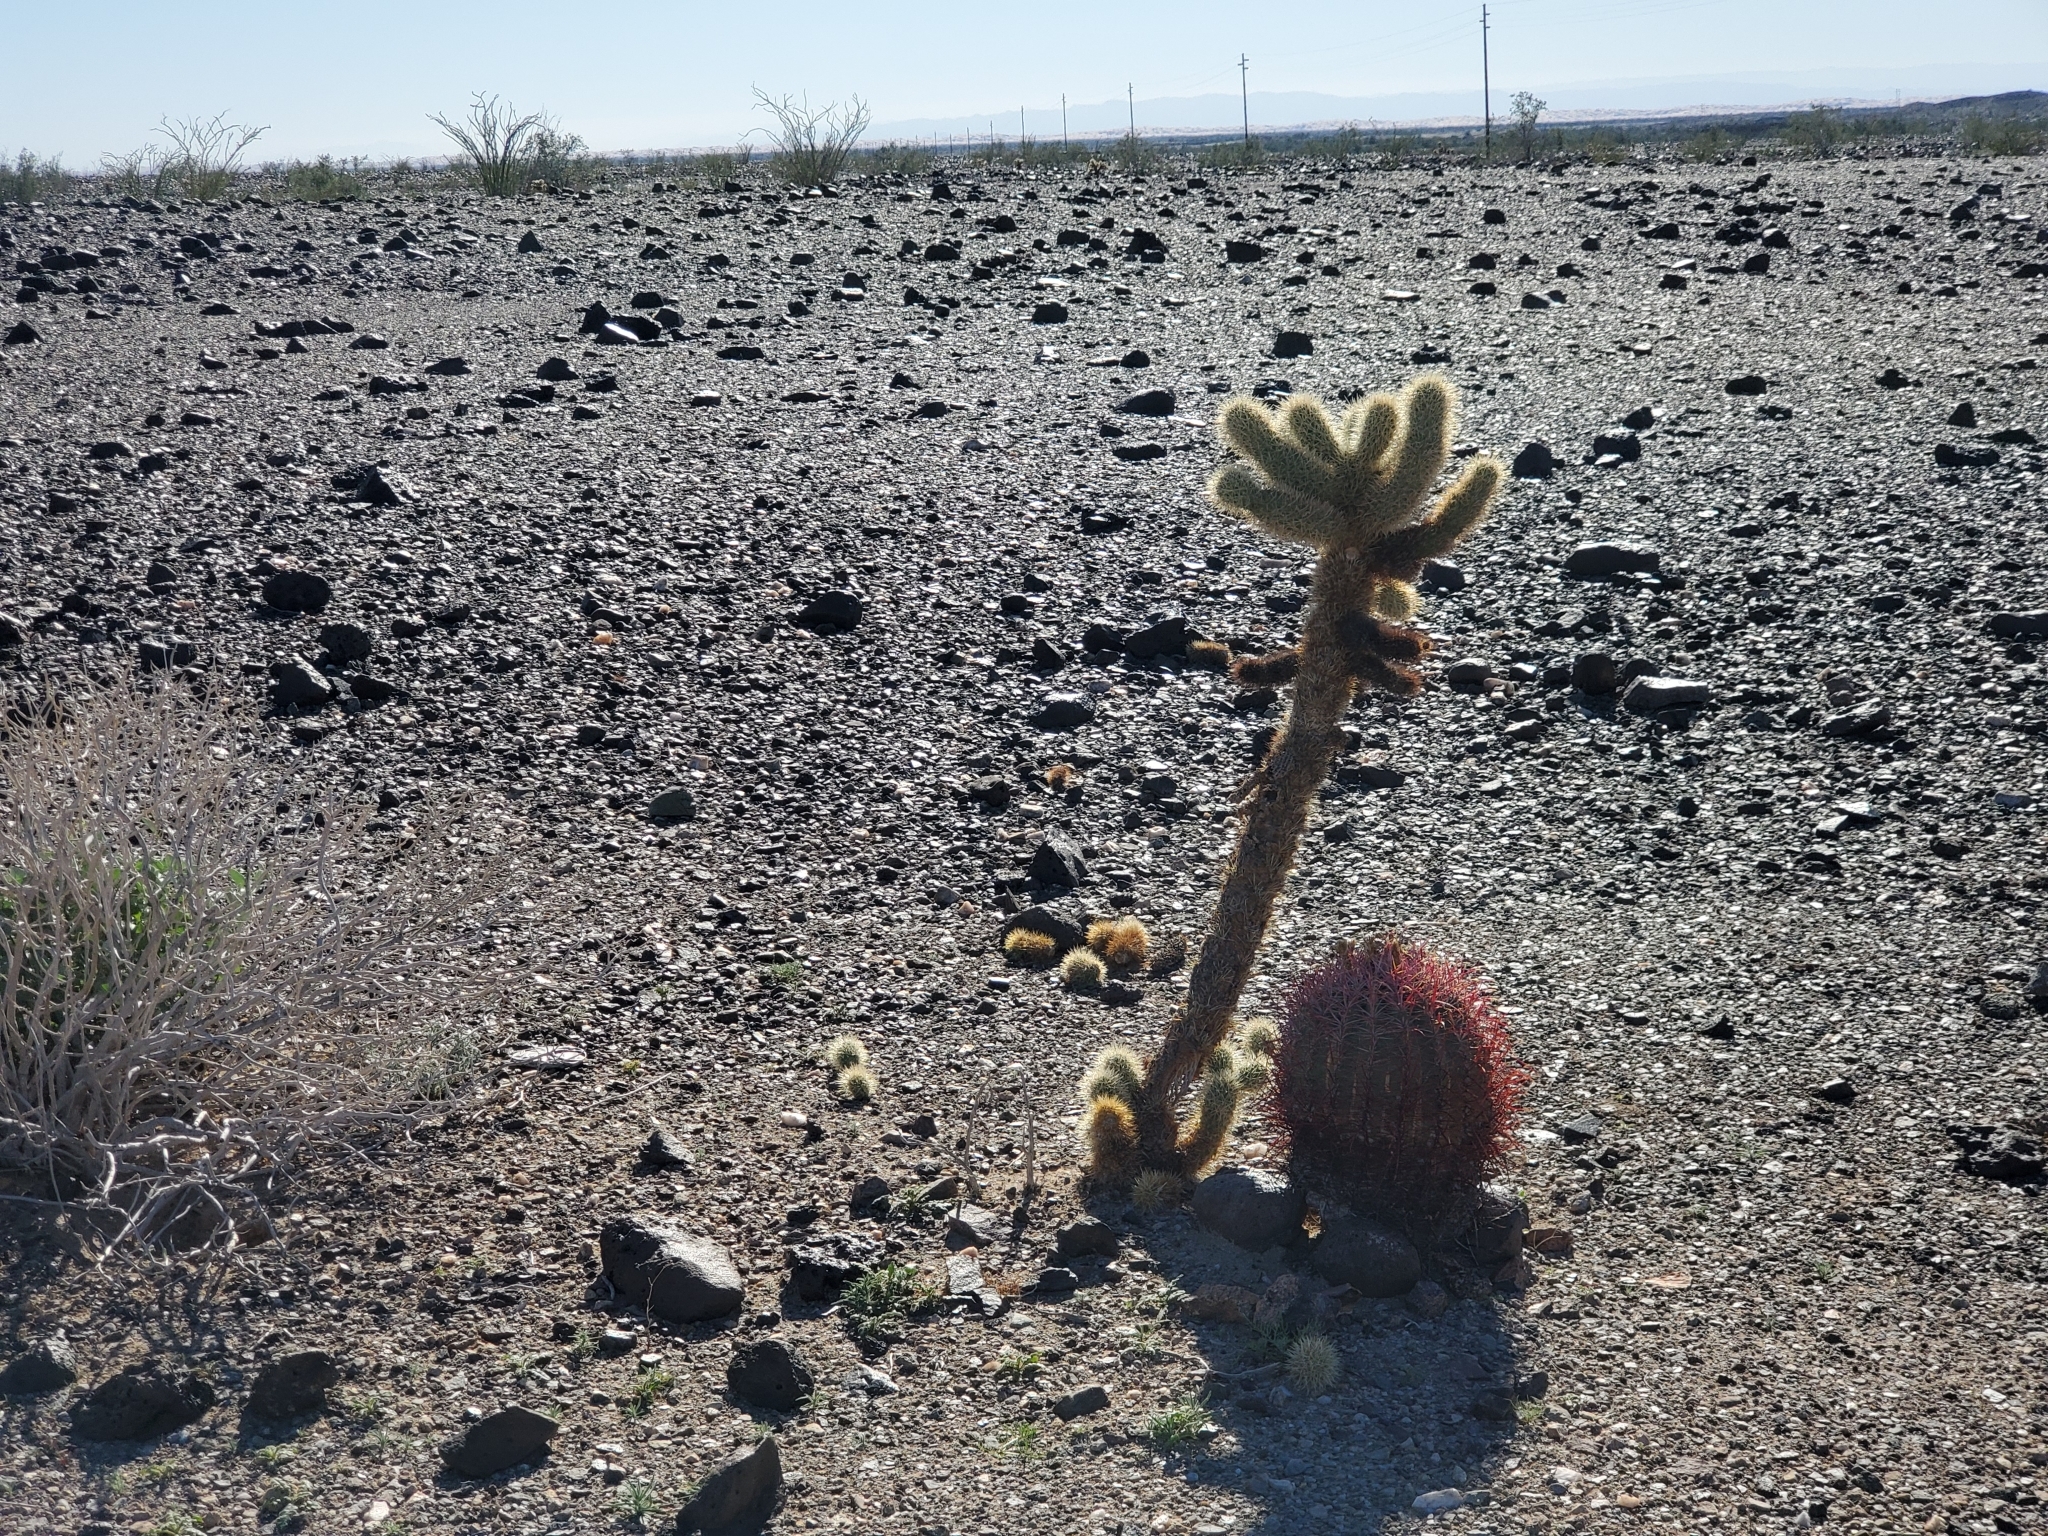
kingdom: Plantae
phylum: Tracheophyta
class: Magnoliopsida
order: Caryophyllales
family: Cactaceae
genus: Cylindropuntia
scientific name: Cylindropuntia fosbergii
